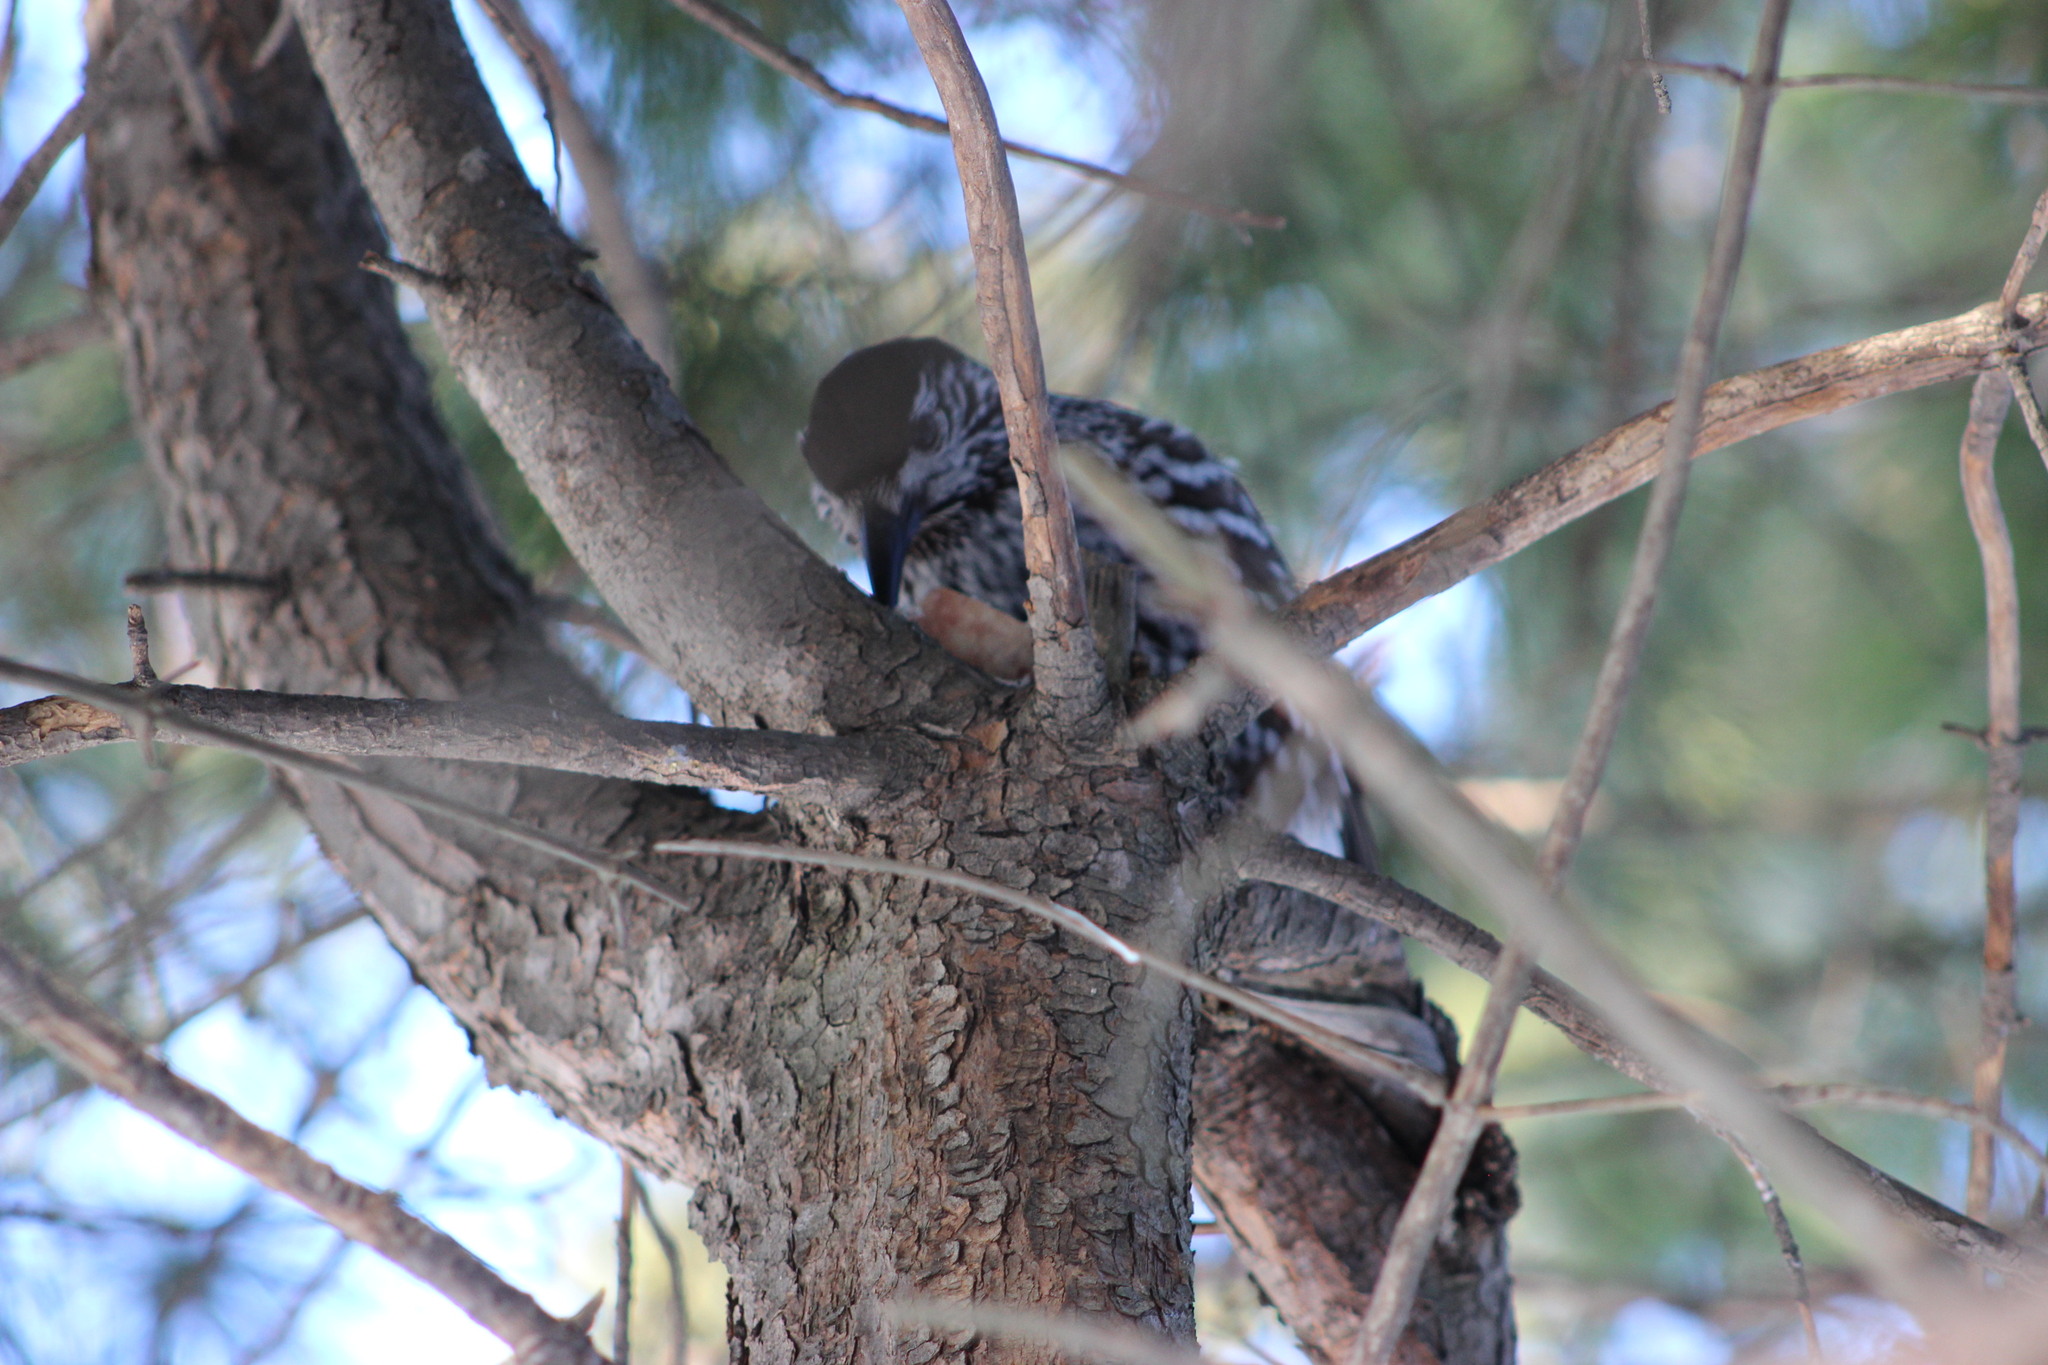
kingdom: Animalia
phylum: Chordata
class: Aves
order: Passeriformes
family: Corvidae
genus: Nucifraga
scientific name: Nucifraga caryocatactes
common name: Spotted nutcracker
